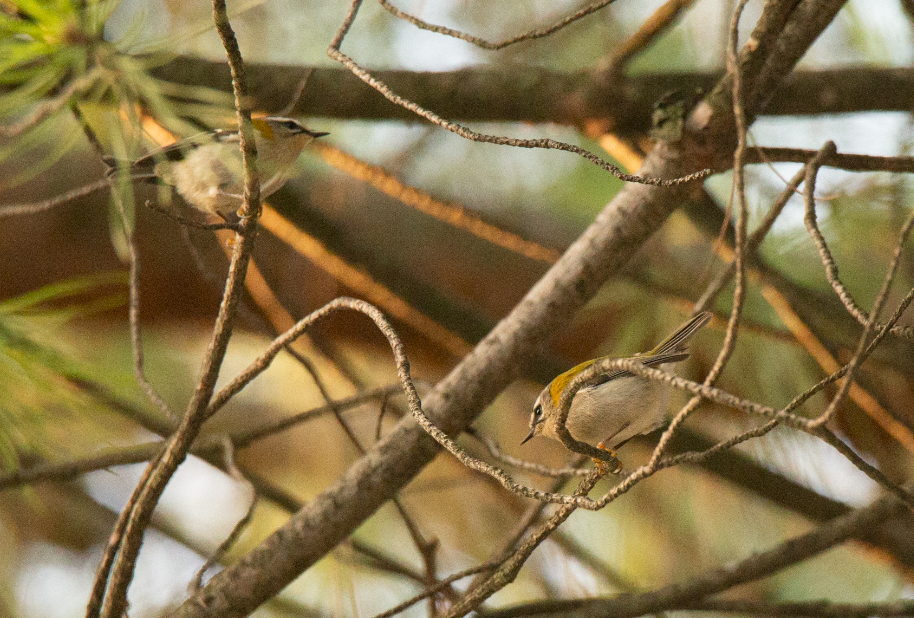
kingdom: Animalia
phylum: Chordata
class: Aves
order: Passeriformes
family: Regulidae
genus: Regulus
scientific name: Regulus ignicapilla
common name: Firecrest
